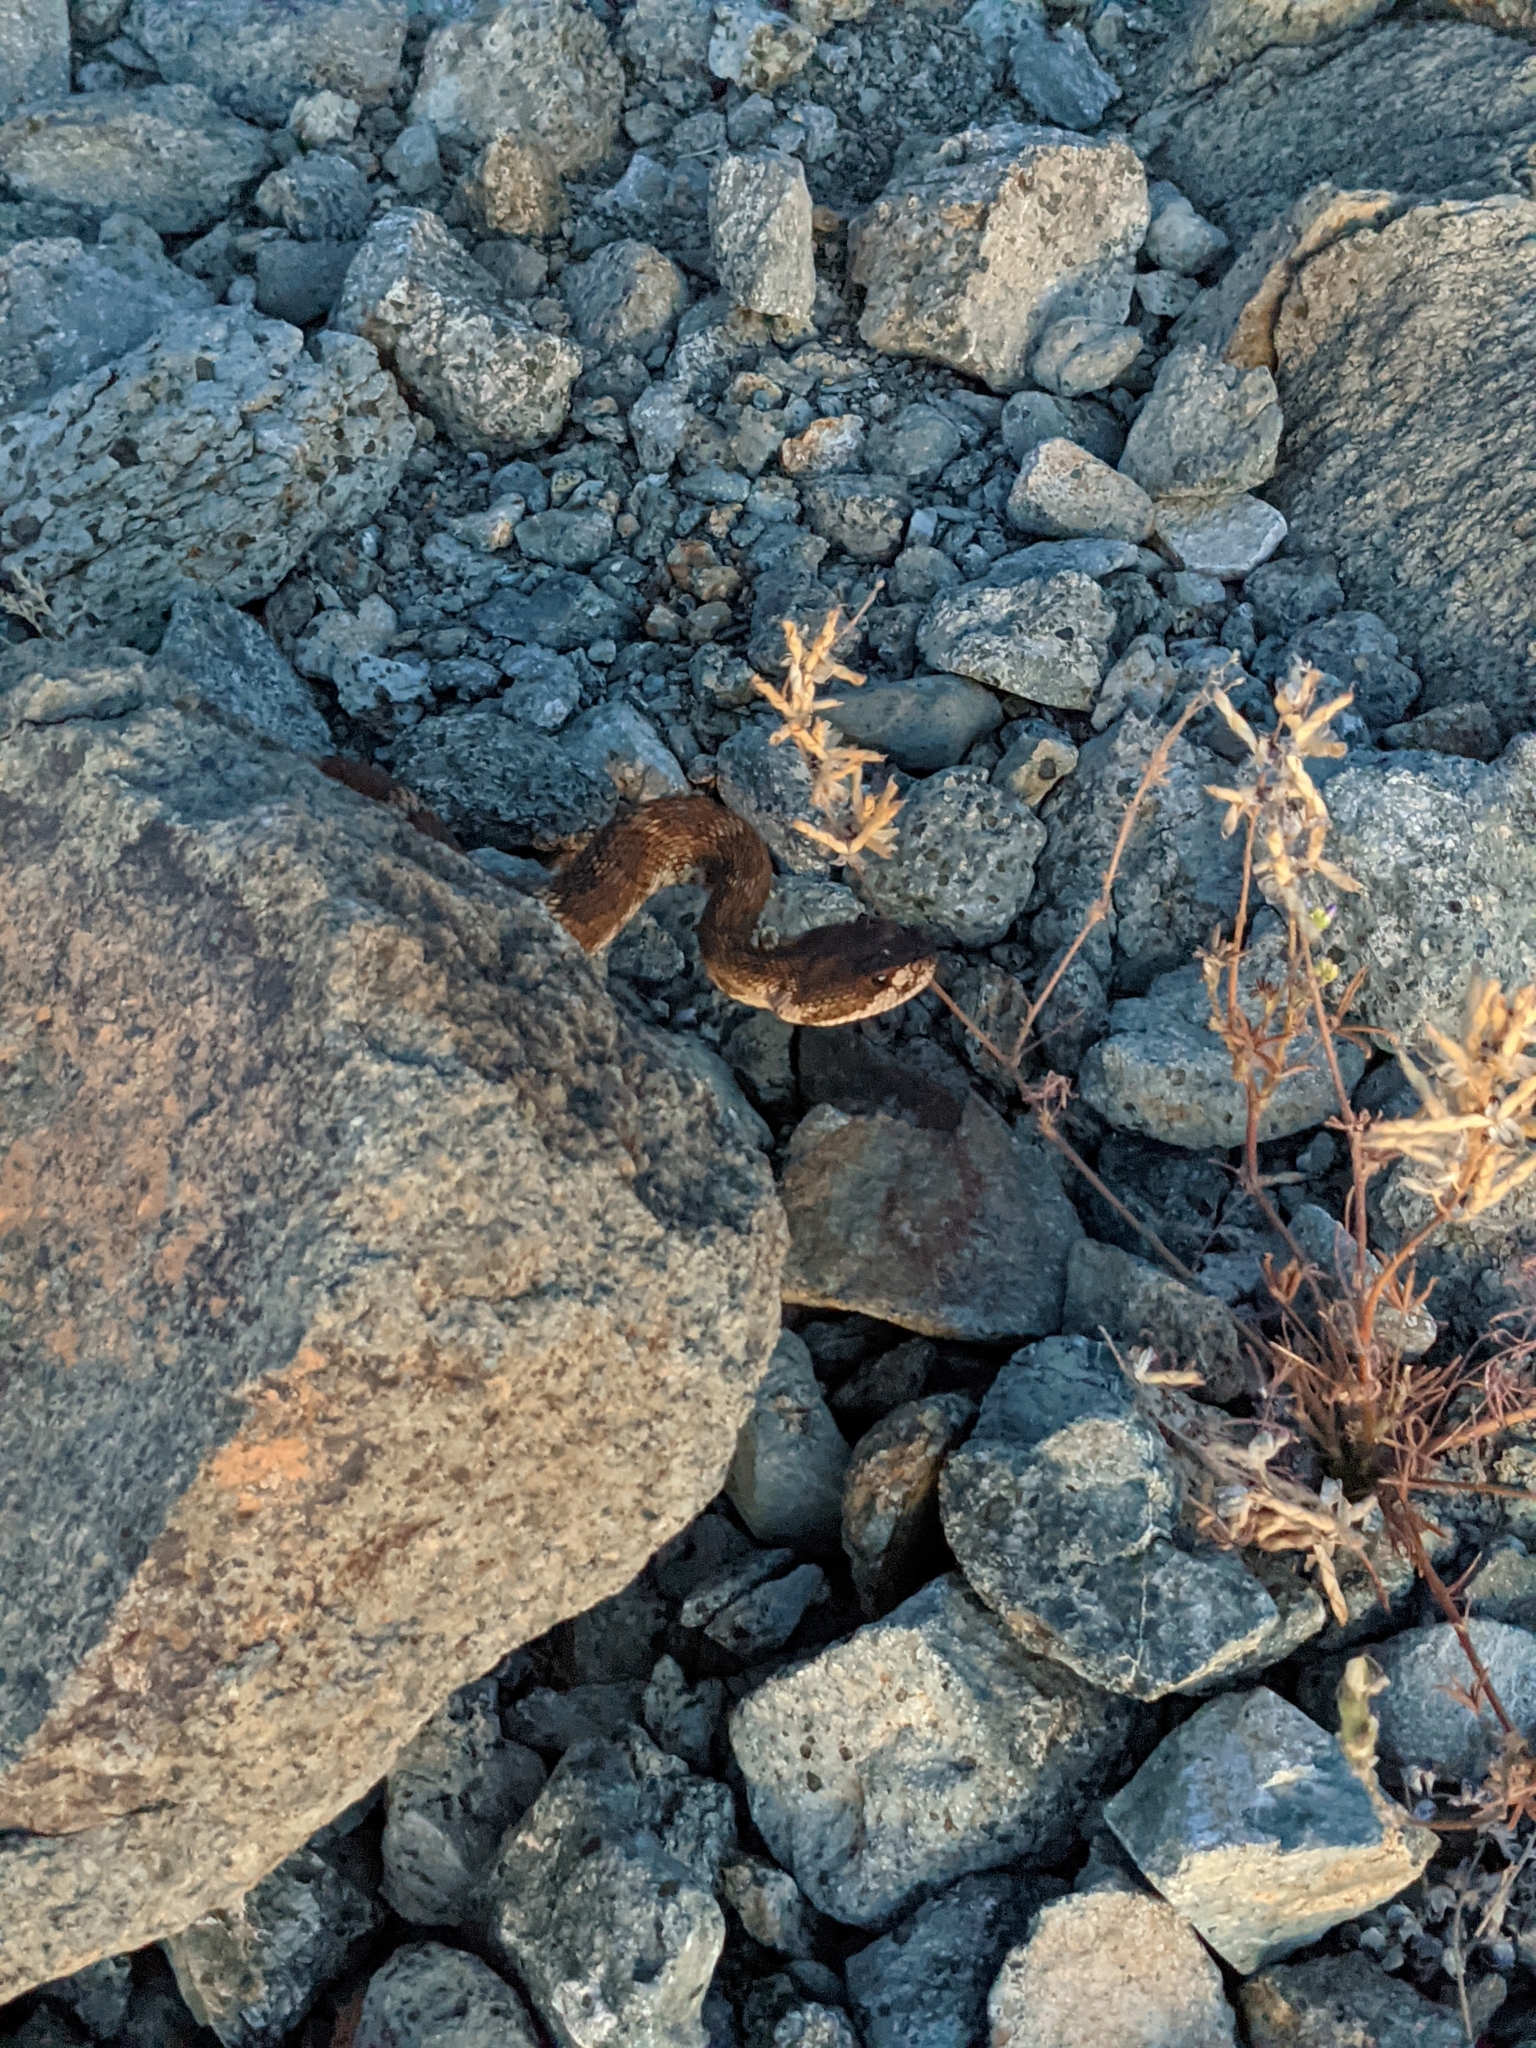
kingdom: Animalia
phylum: Chordata
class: Squamata
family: Viperidae
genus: Crotalus
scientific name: Crotalus oreganus
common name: Abyssus
